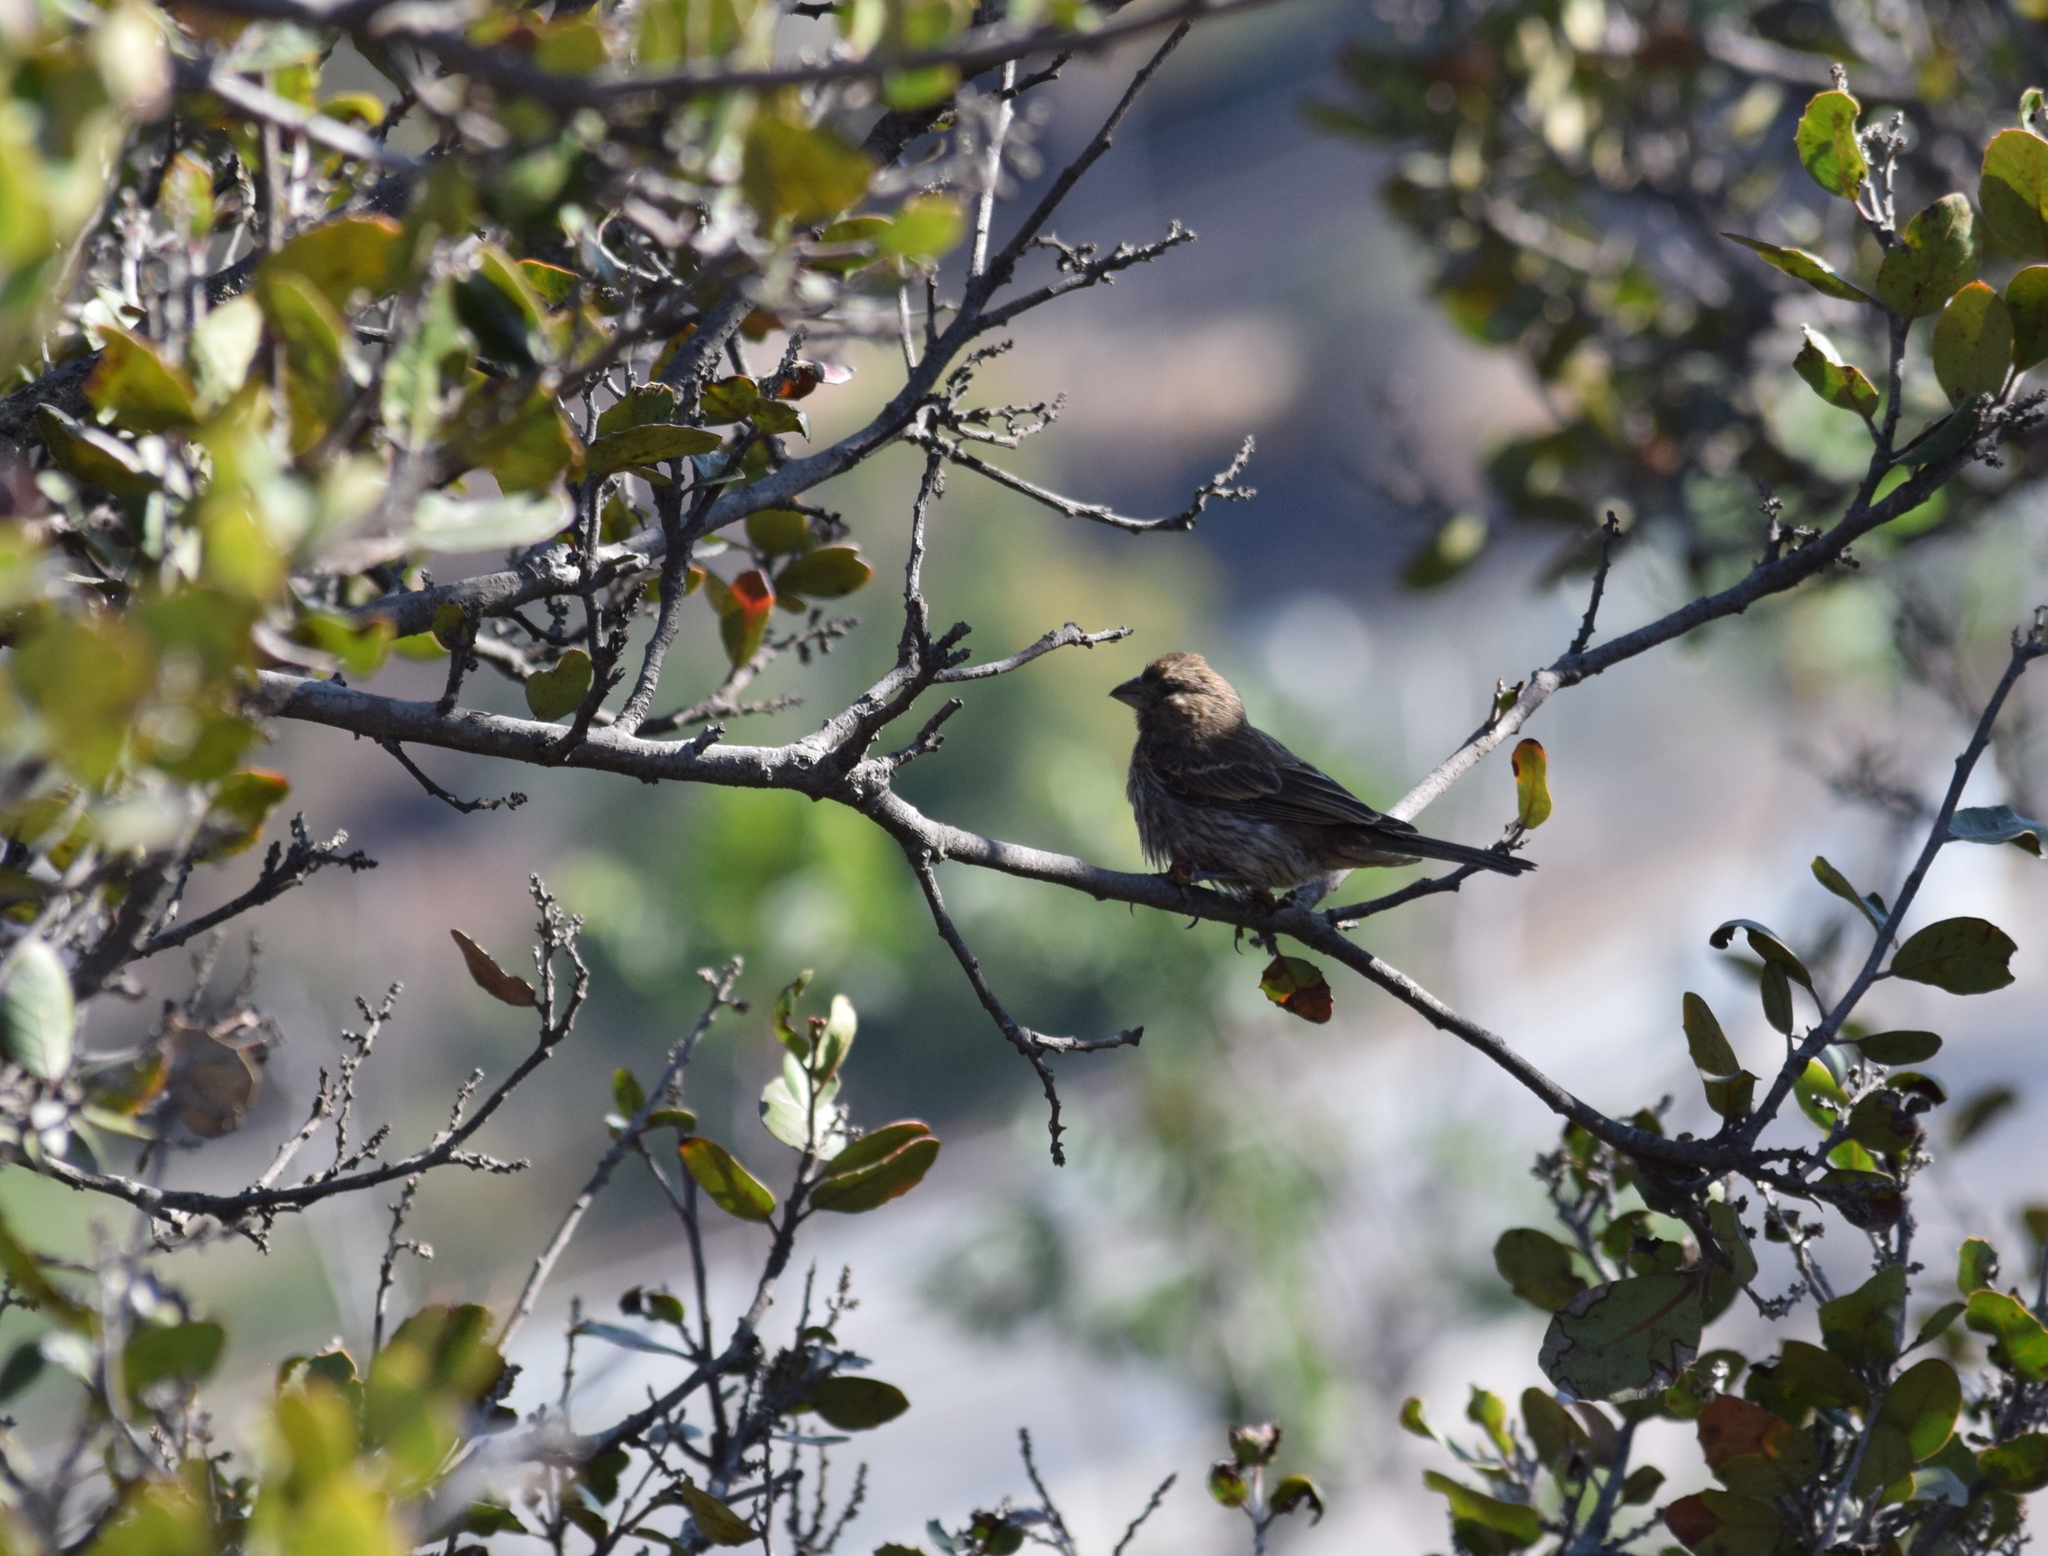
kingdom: Animalia
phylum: Chordata
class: Aves
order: Passeriformes
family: Fringillidae
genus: Haemorhous
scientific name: Haemorhous mexicanus
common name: House finch
